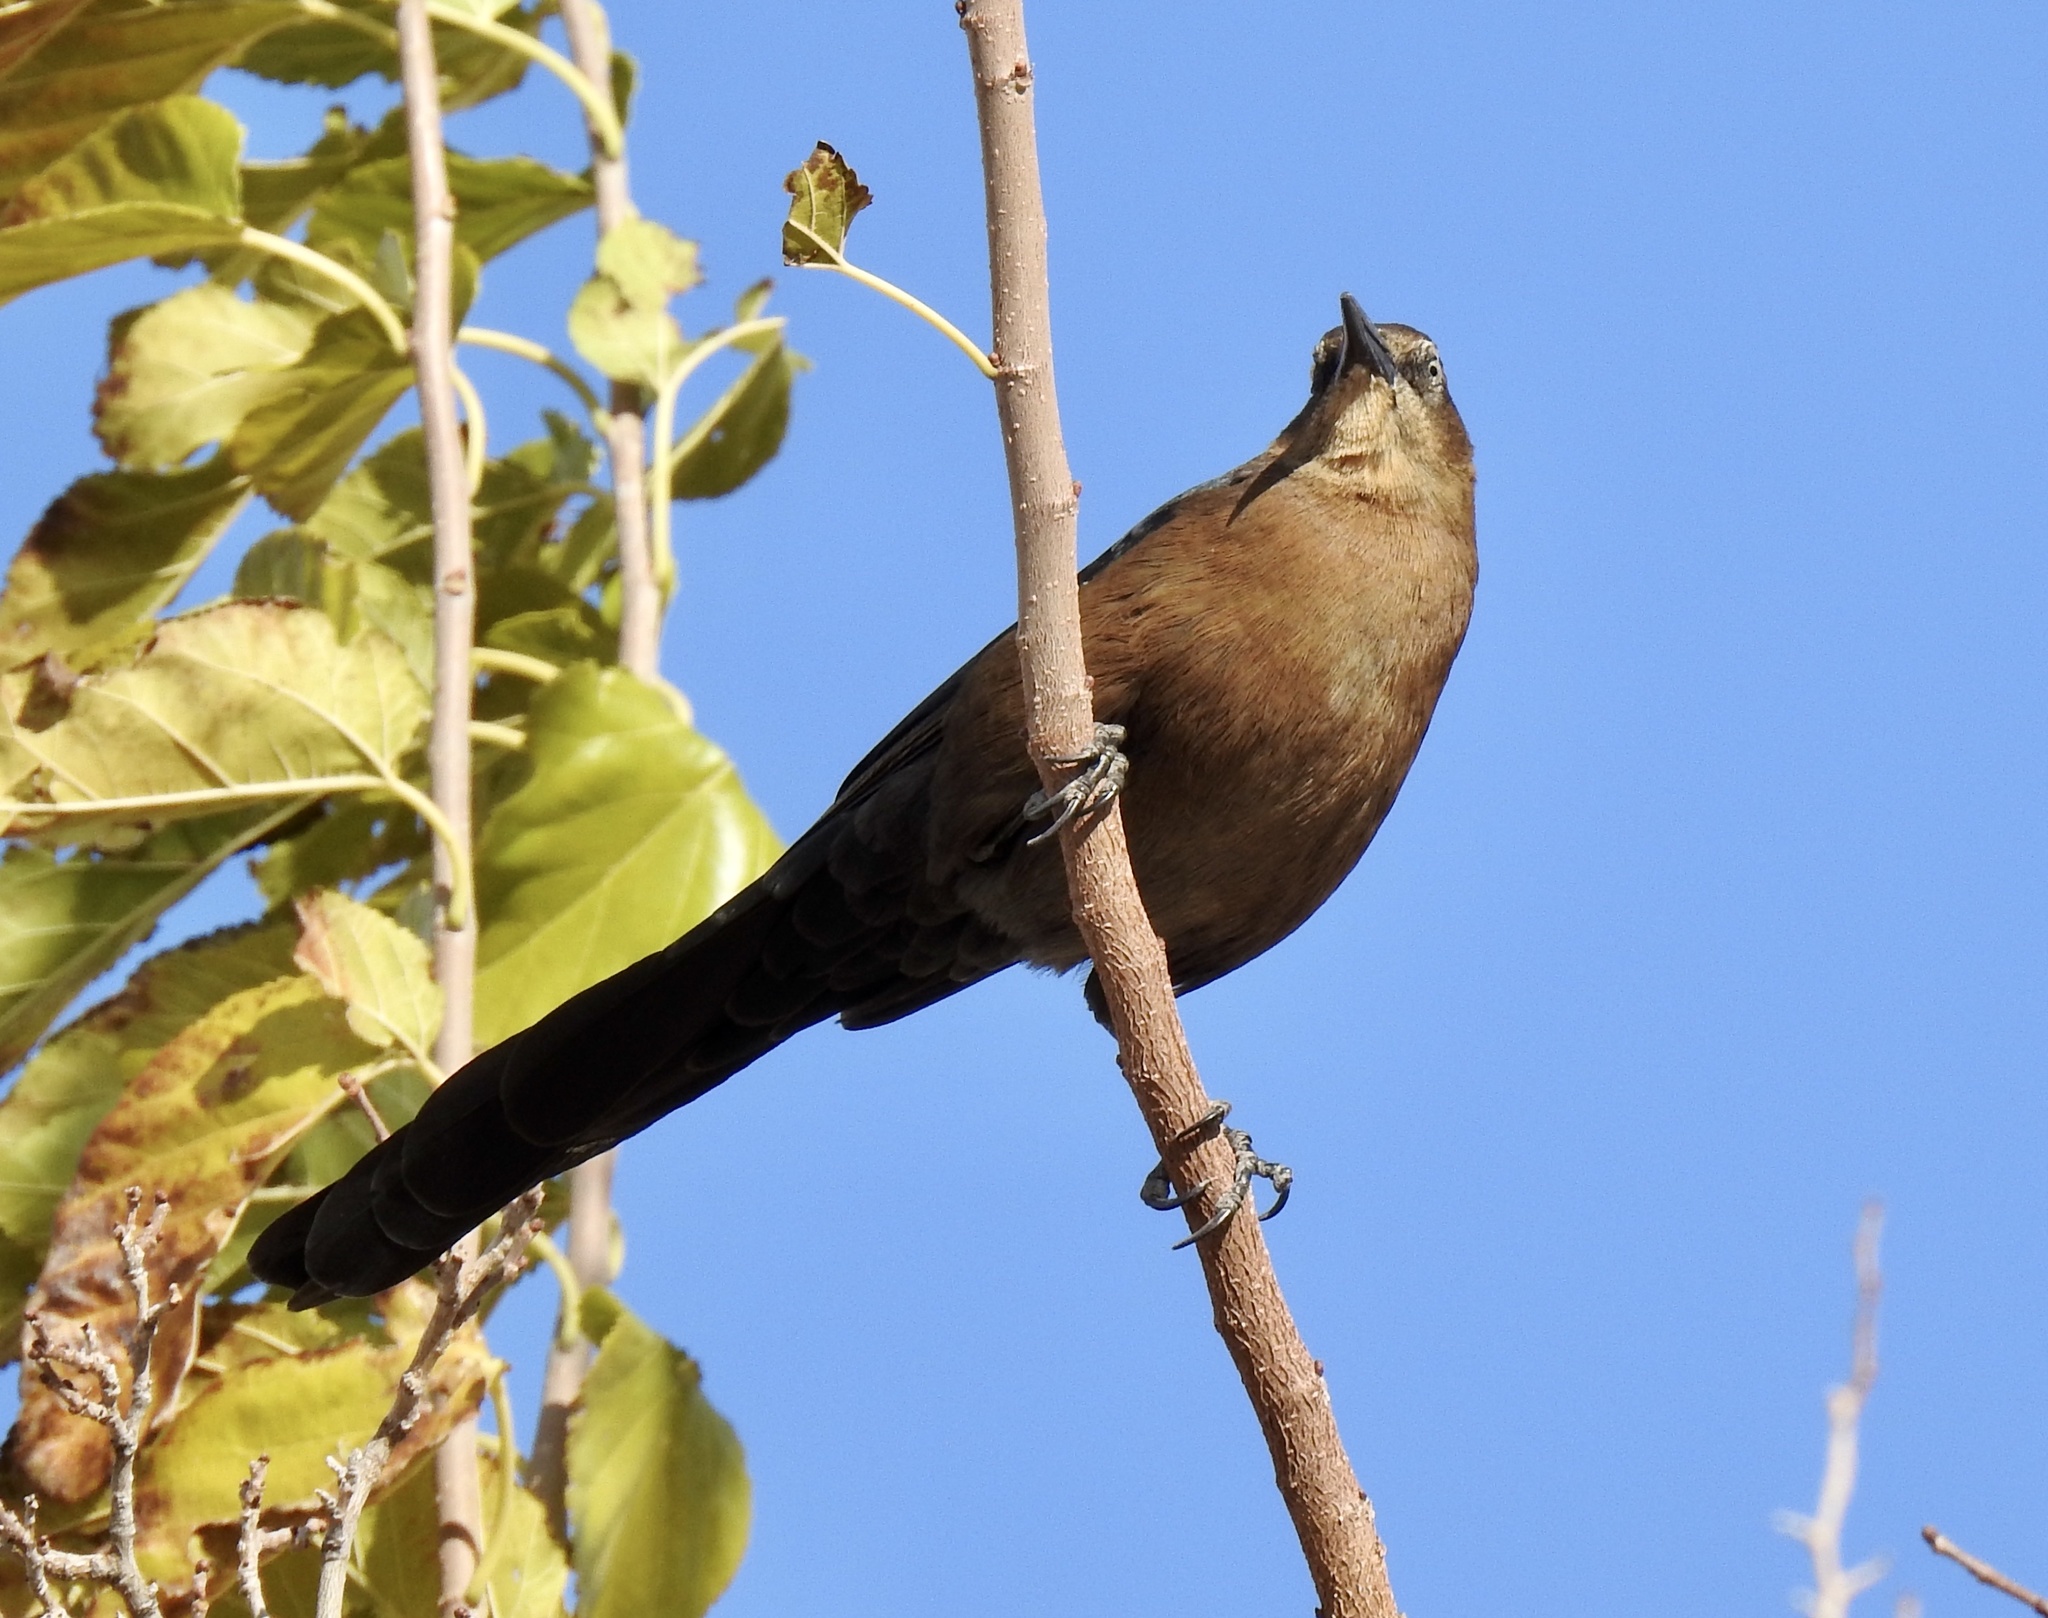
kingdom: Animalia
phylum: Chordata
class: Aves
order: Passeriformes
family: Icteridae
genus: Quiscalus
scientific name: Quiscalus mexicanus
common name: Great-tailed grackle
